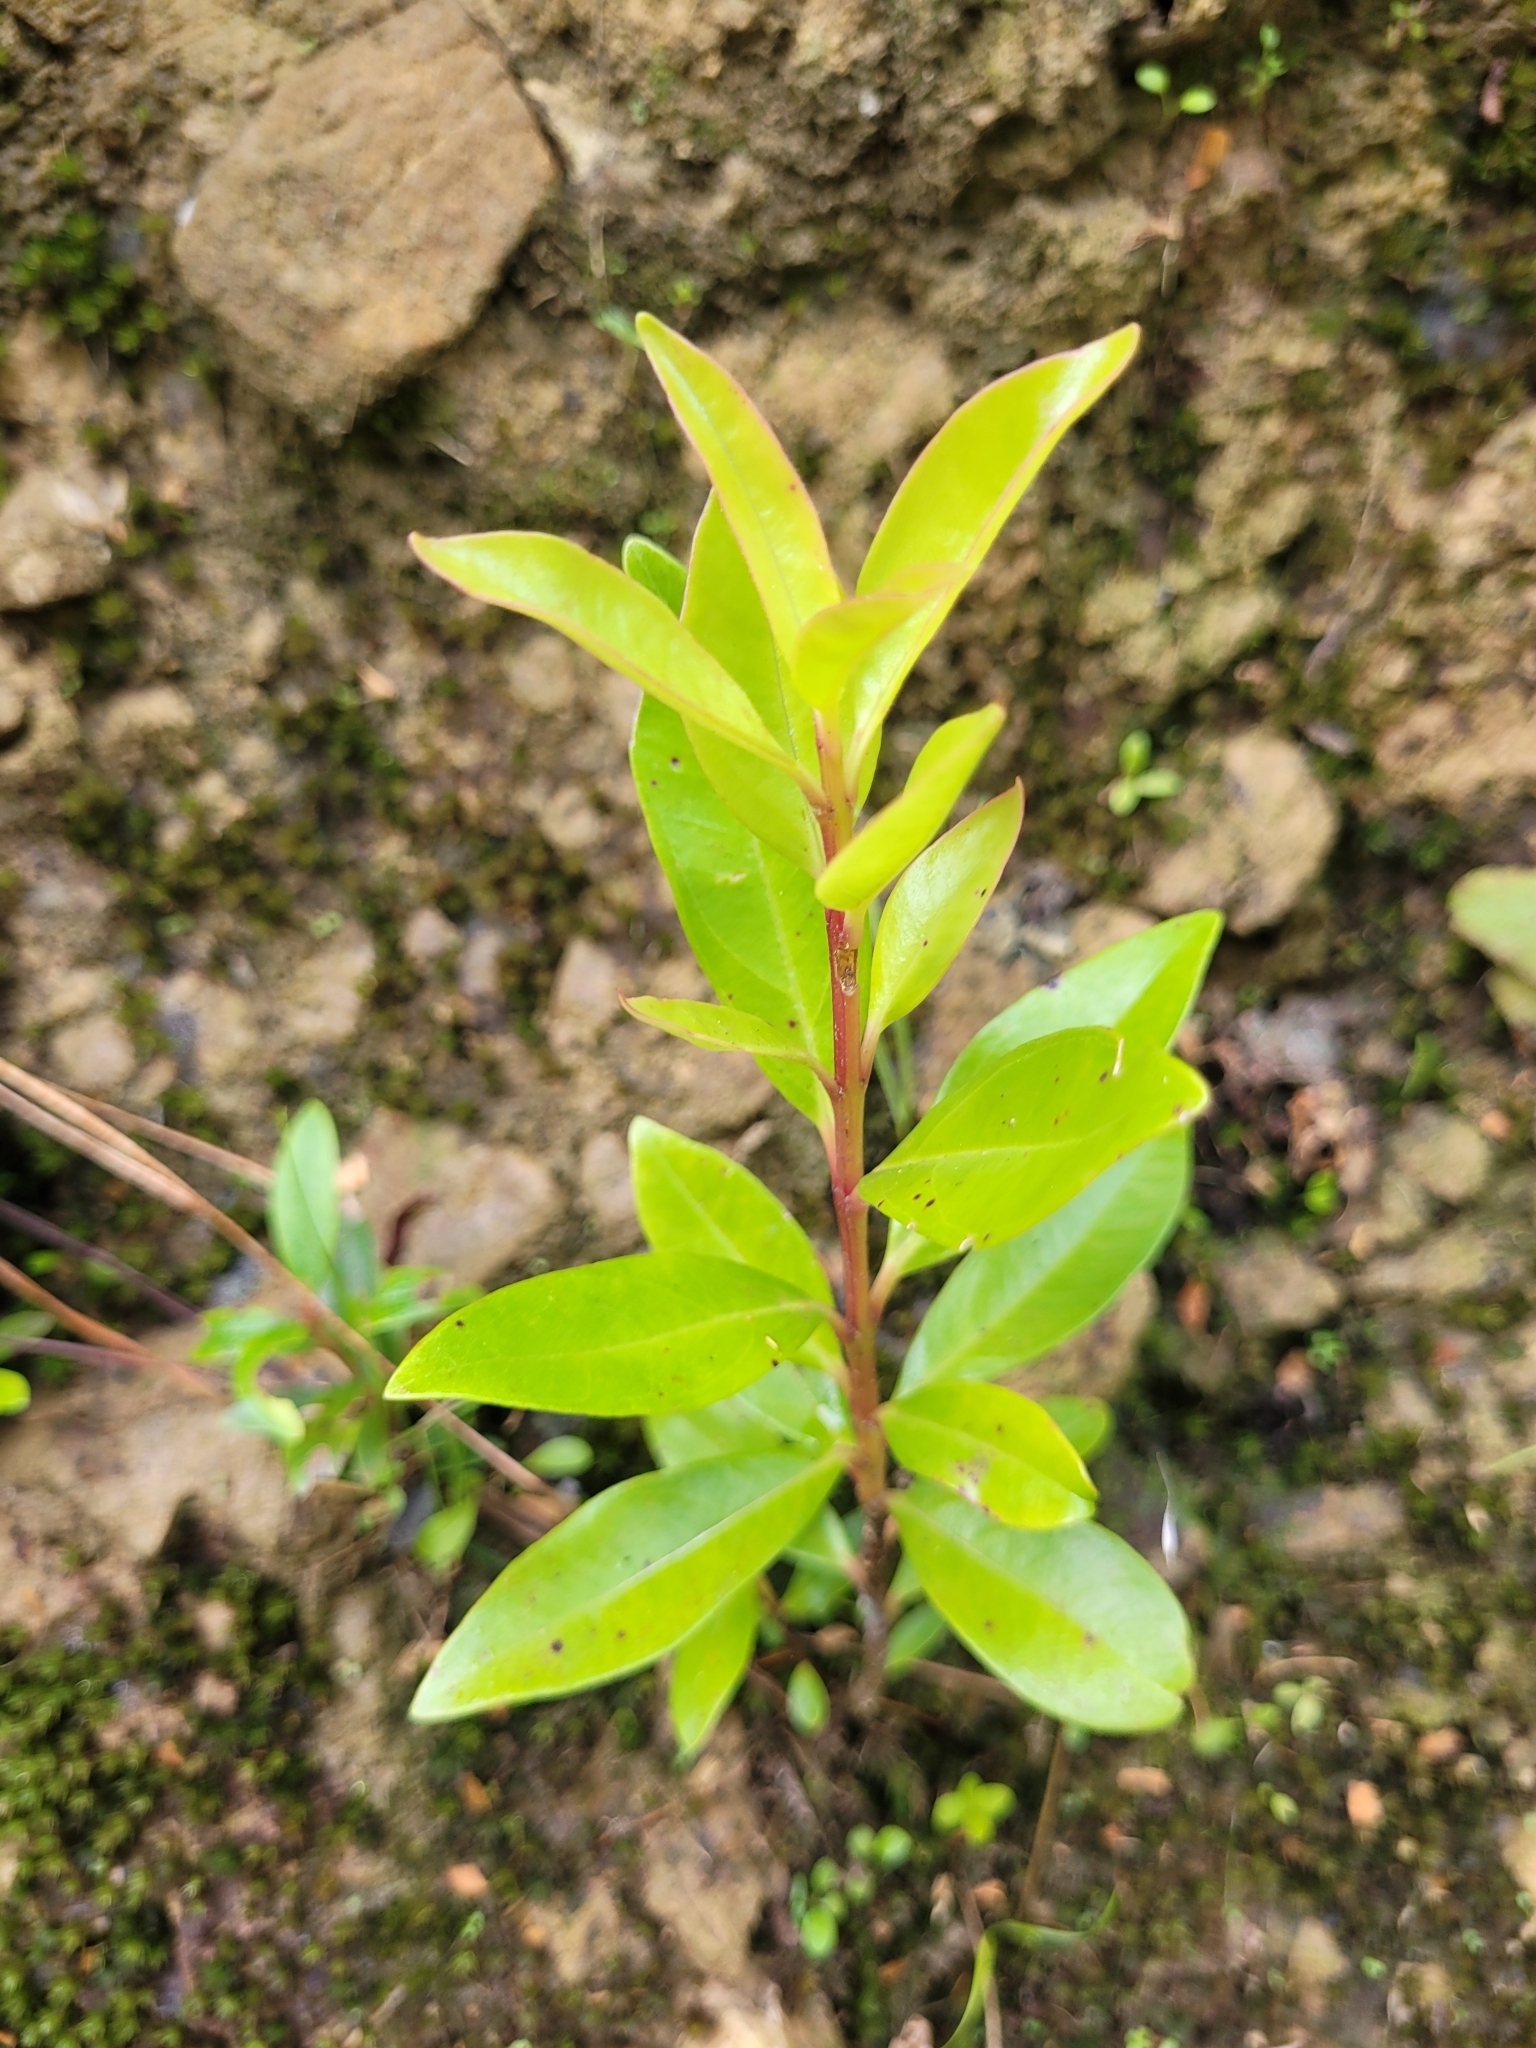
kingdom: Plantae
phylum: Tracheophyta
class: Magnoliopsida
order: Myrtales
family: Myrtaceae
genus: Metrosideros
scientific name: Metrosideros excelsa
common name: New zealand christmastree
